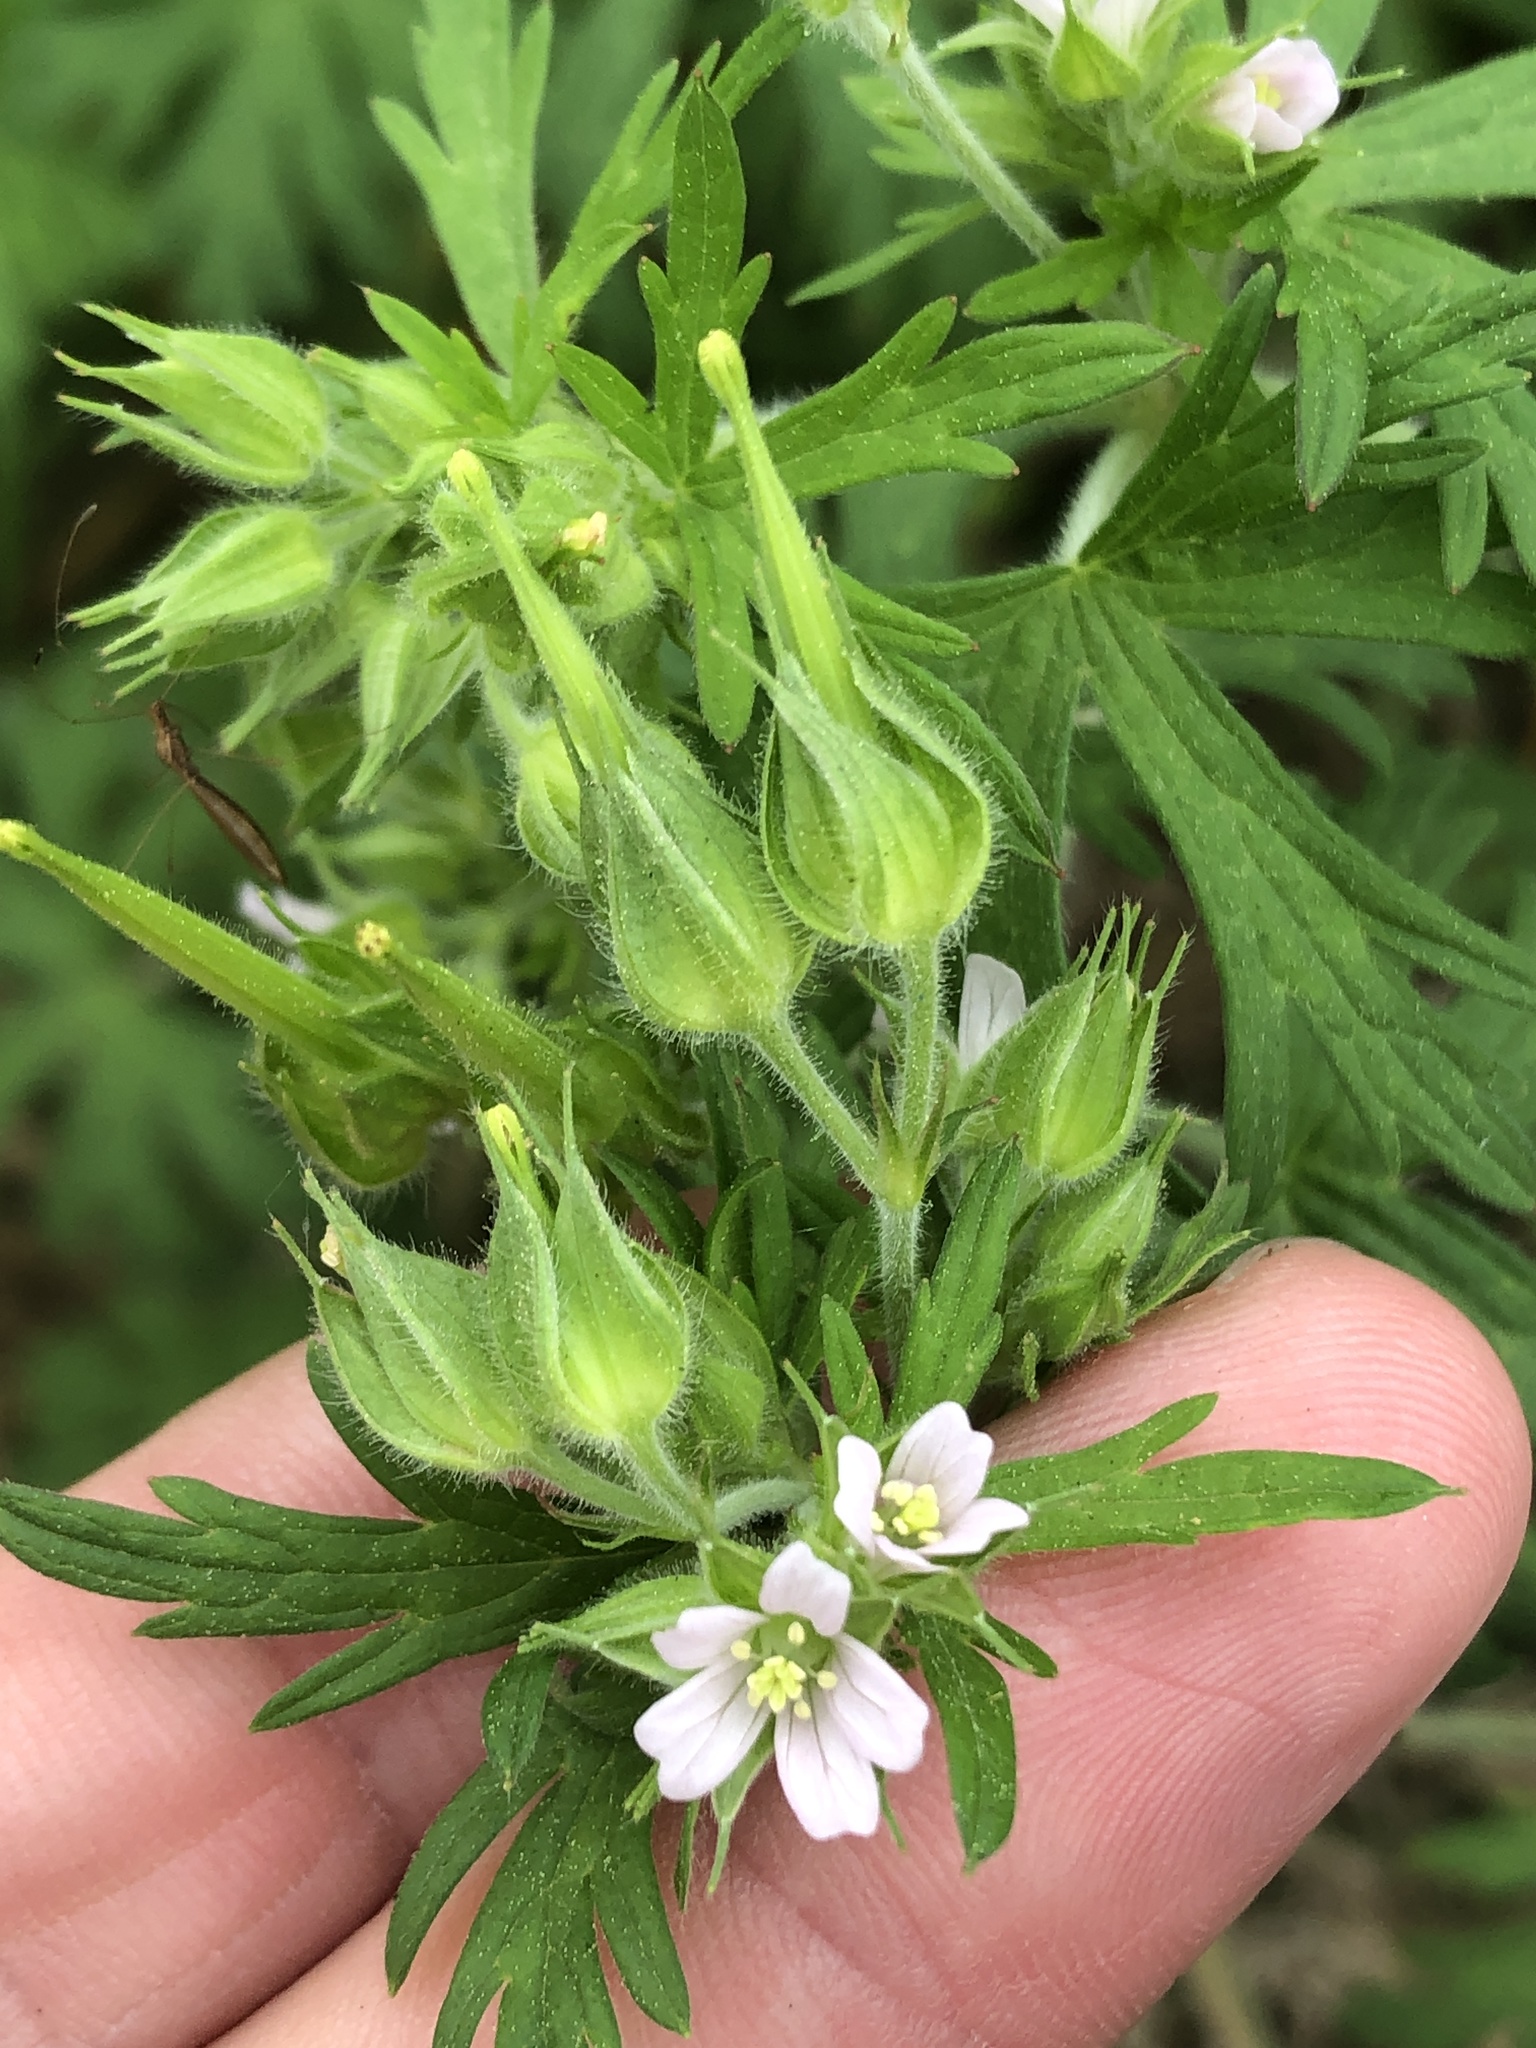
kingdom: Plantae
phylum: Tracheophyta
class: Magnoliopsida
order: Geraniales
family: Geraniaceae
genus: Geranium
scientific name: Geranium carolinianum
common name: Carolina crane's-bill
